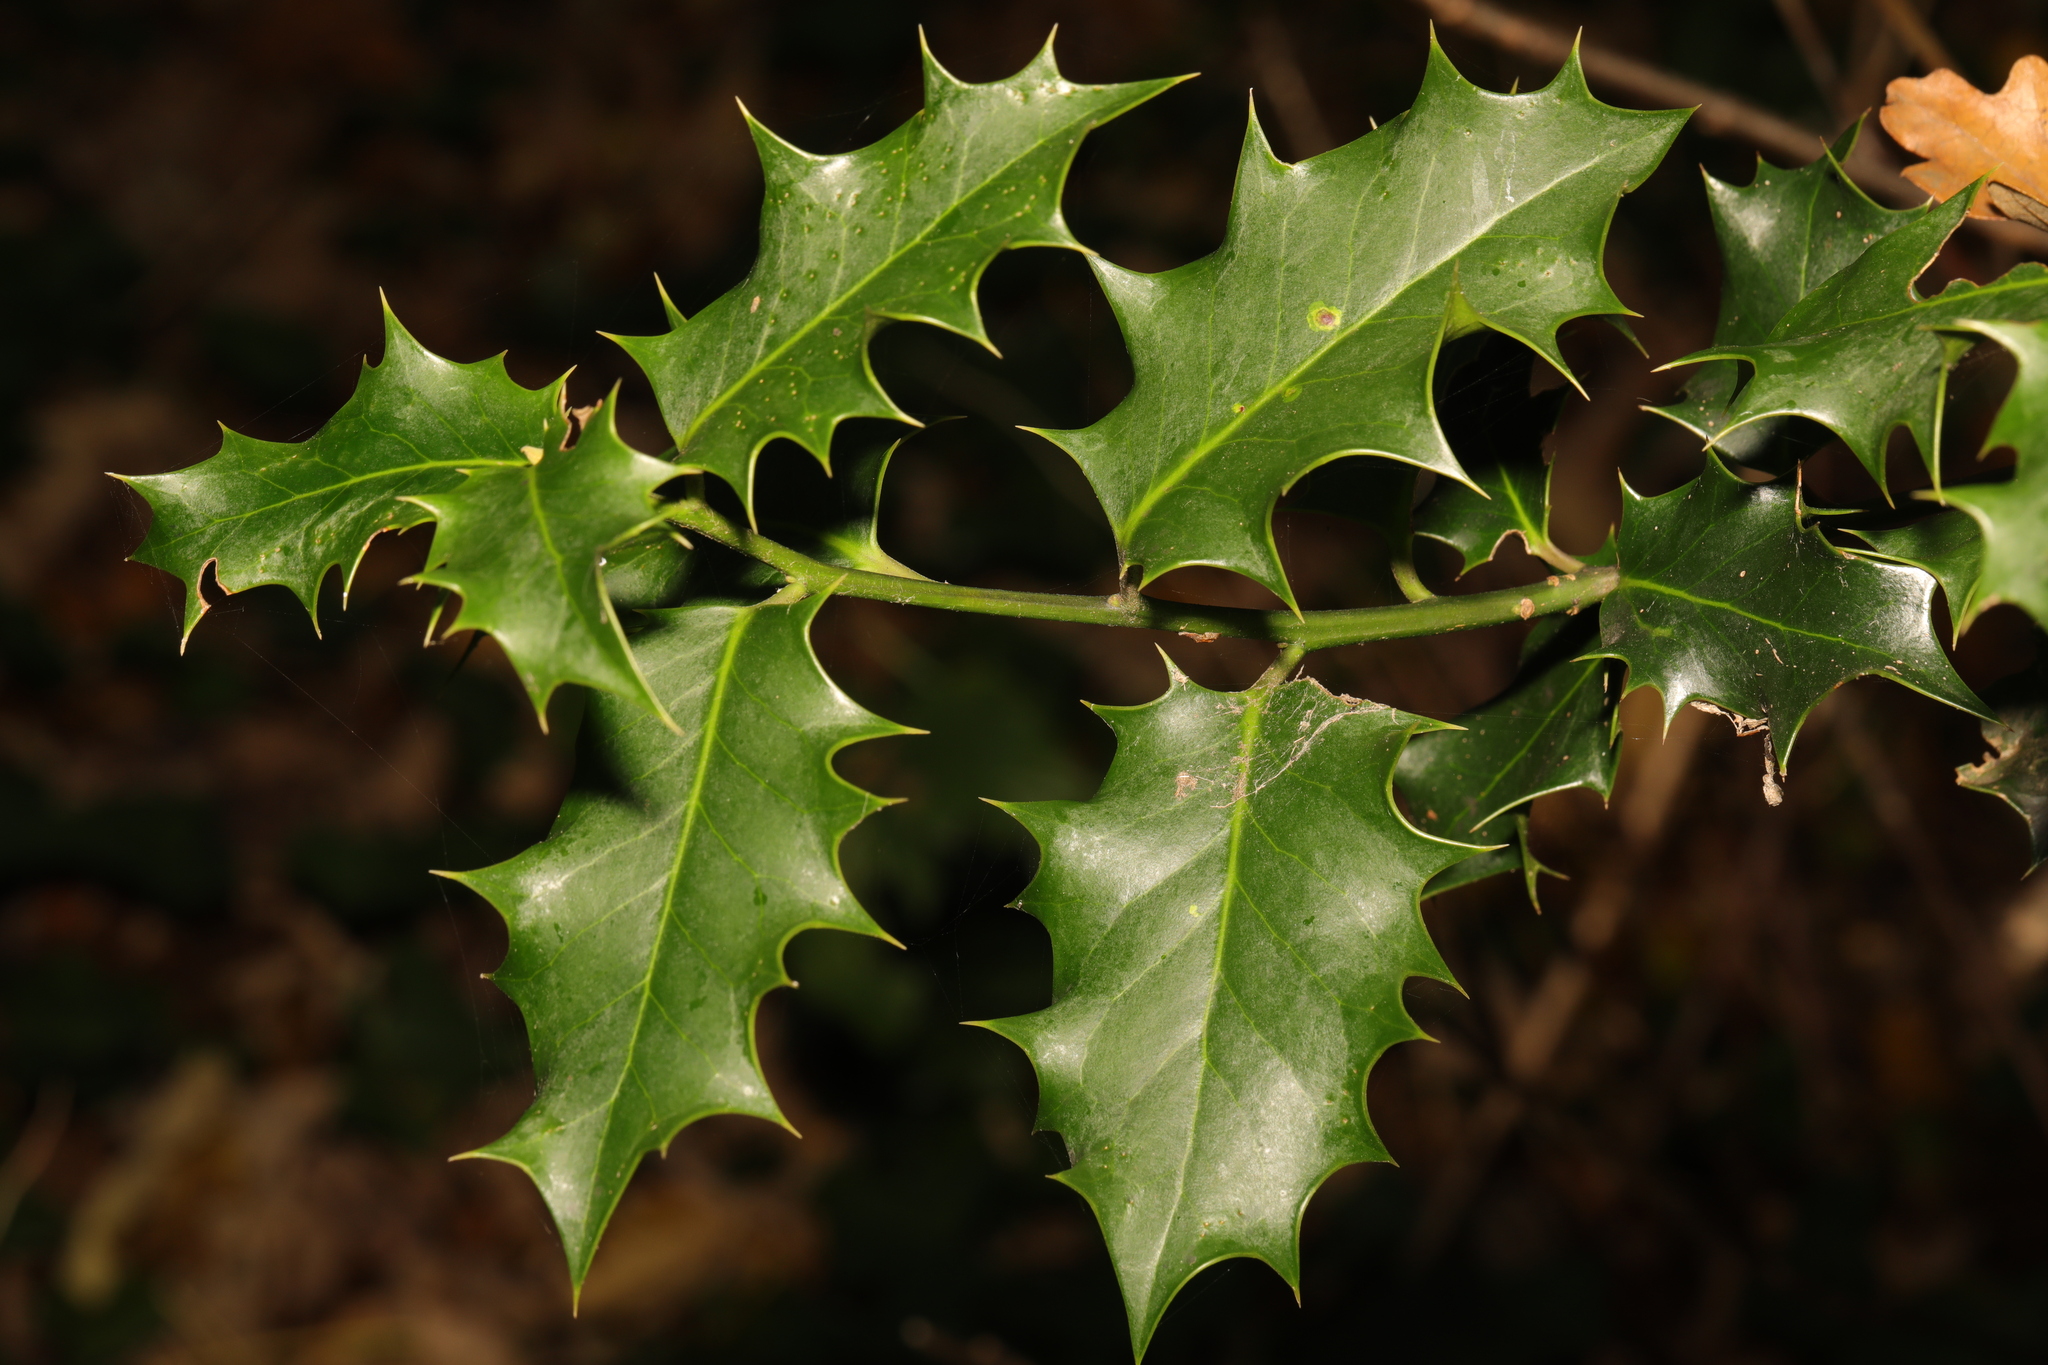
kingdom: Plantae
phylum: Tracheophyta
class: Magnoliopsida
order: Aquifoliales
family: Aquifoliaceae
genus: Ilex
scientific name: Ilex aquifolium
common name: English holly
